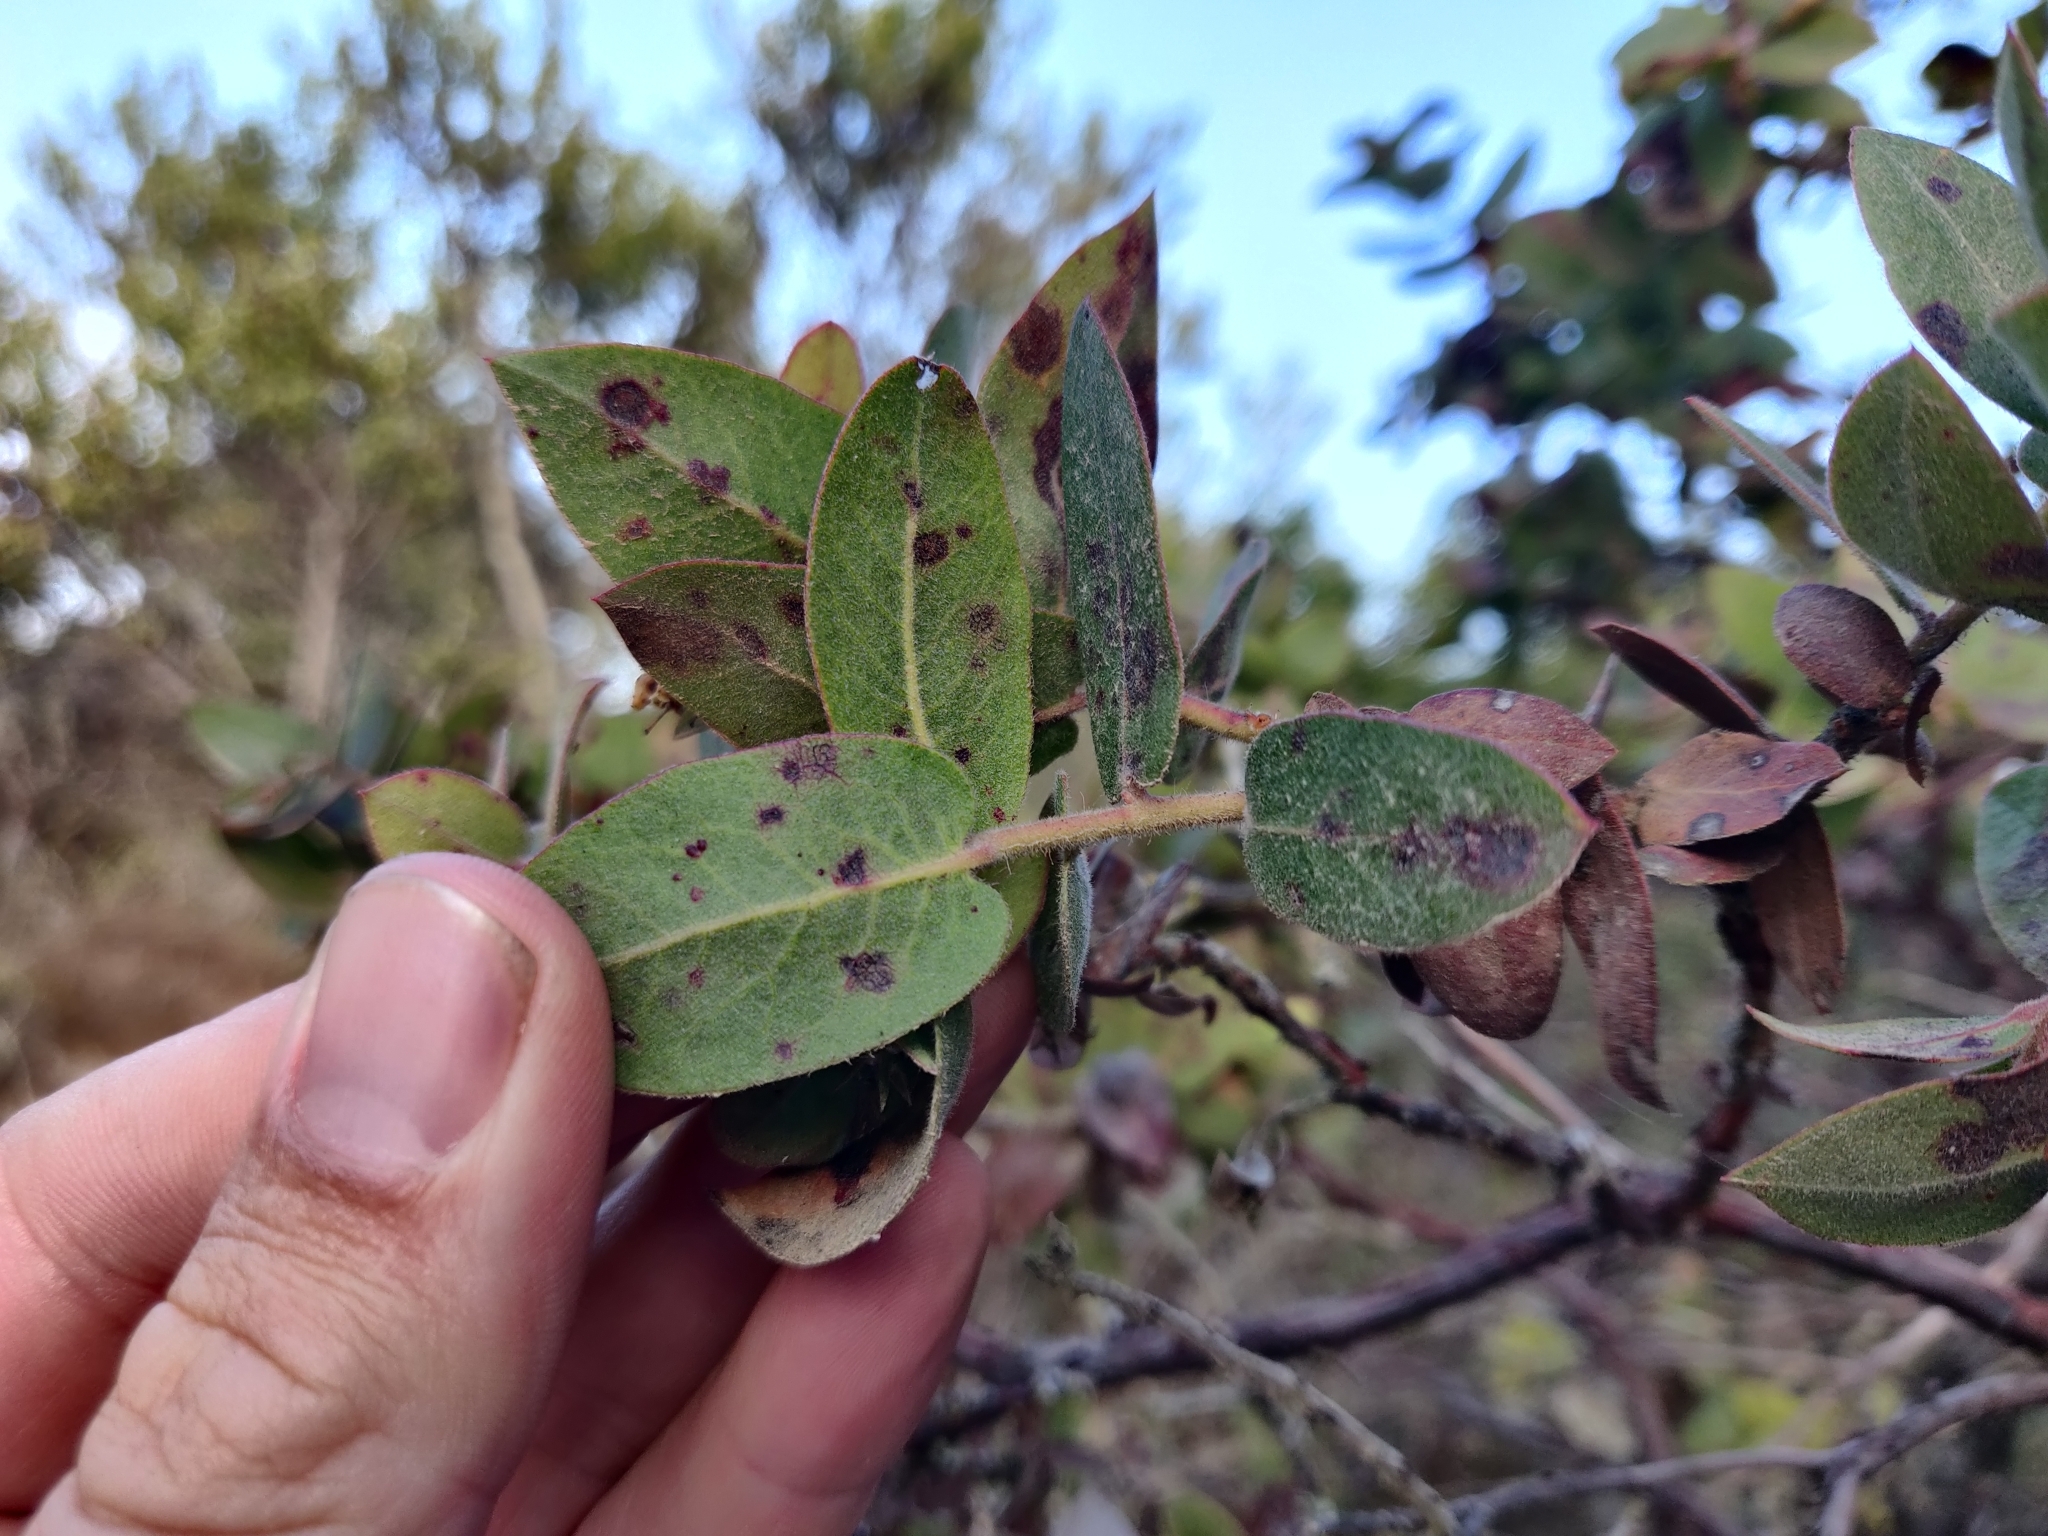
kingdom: Plantae
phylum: Tracheophyta
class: Magnoliopsida
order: Ericales
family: Ericaceae
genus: Arctostaphylos
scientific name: Arctostaphylos pajaroensis
